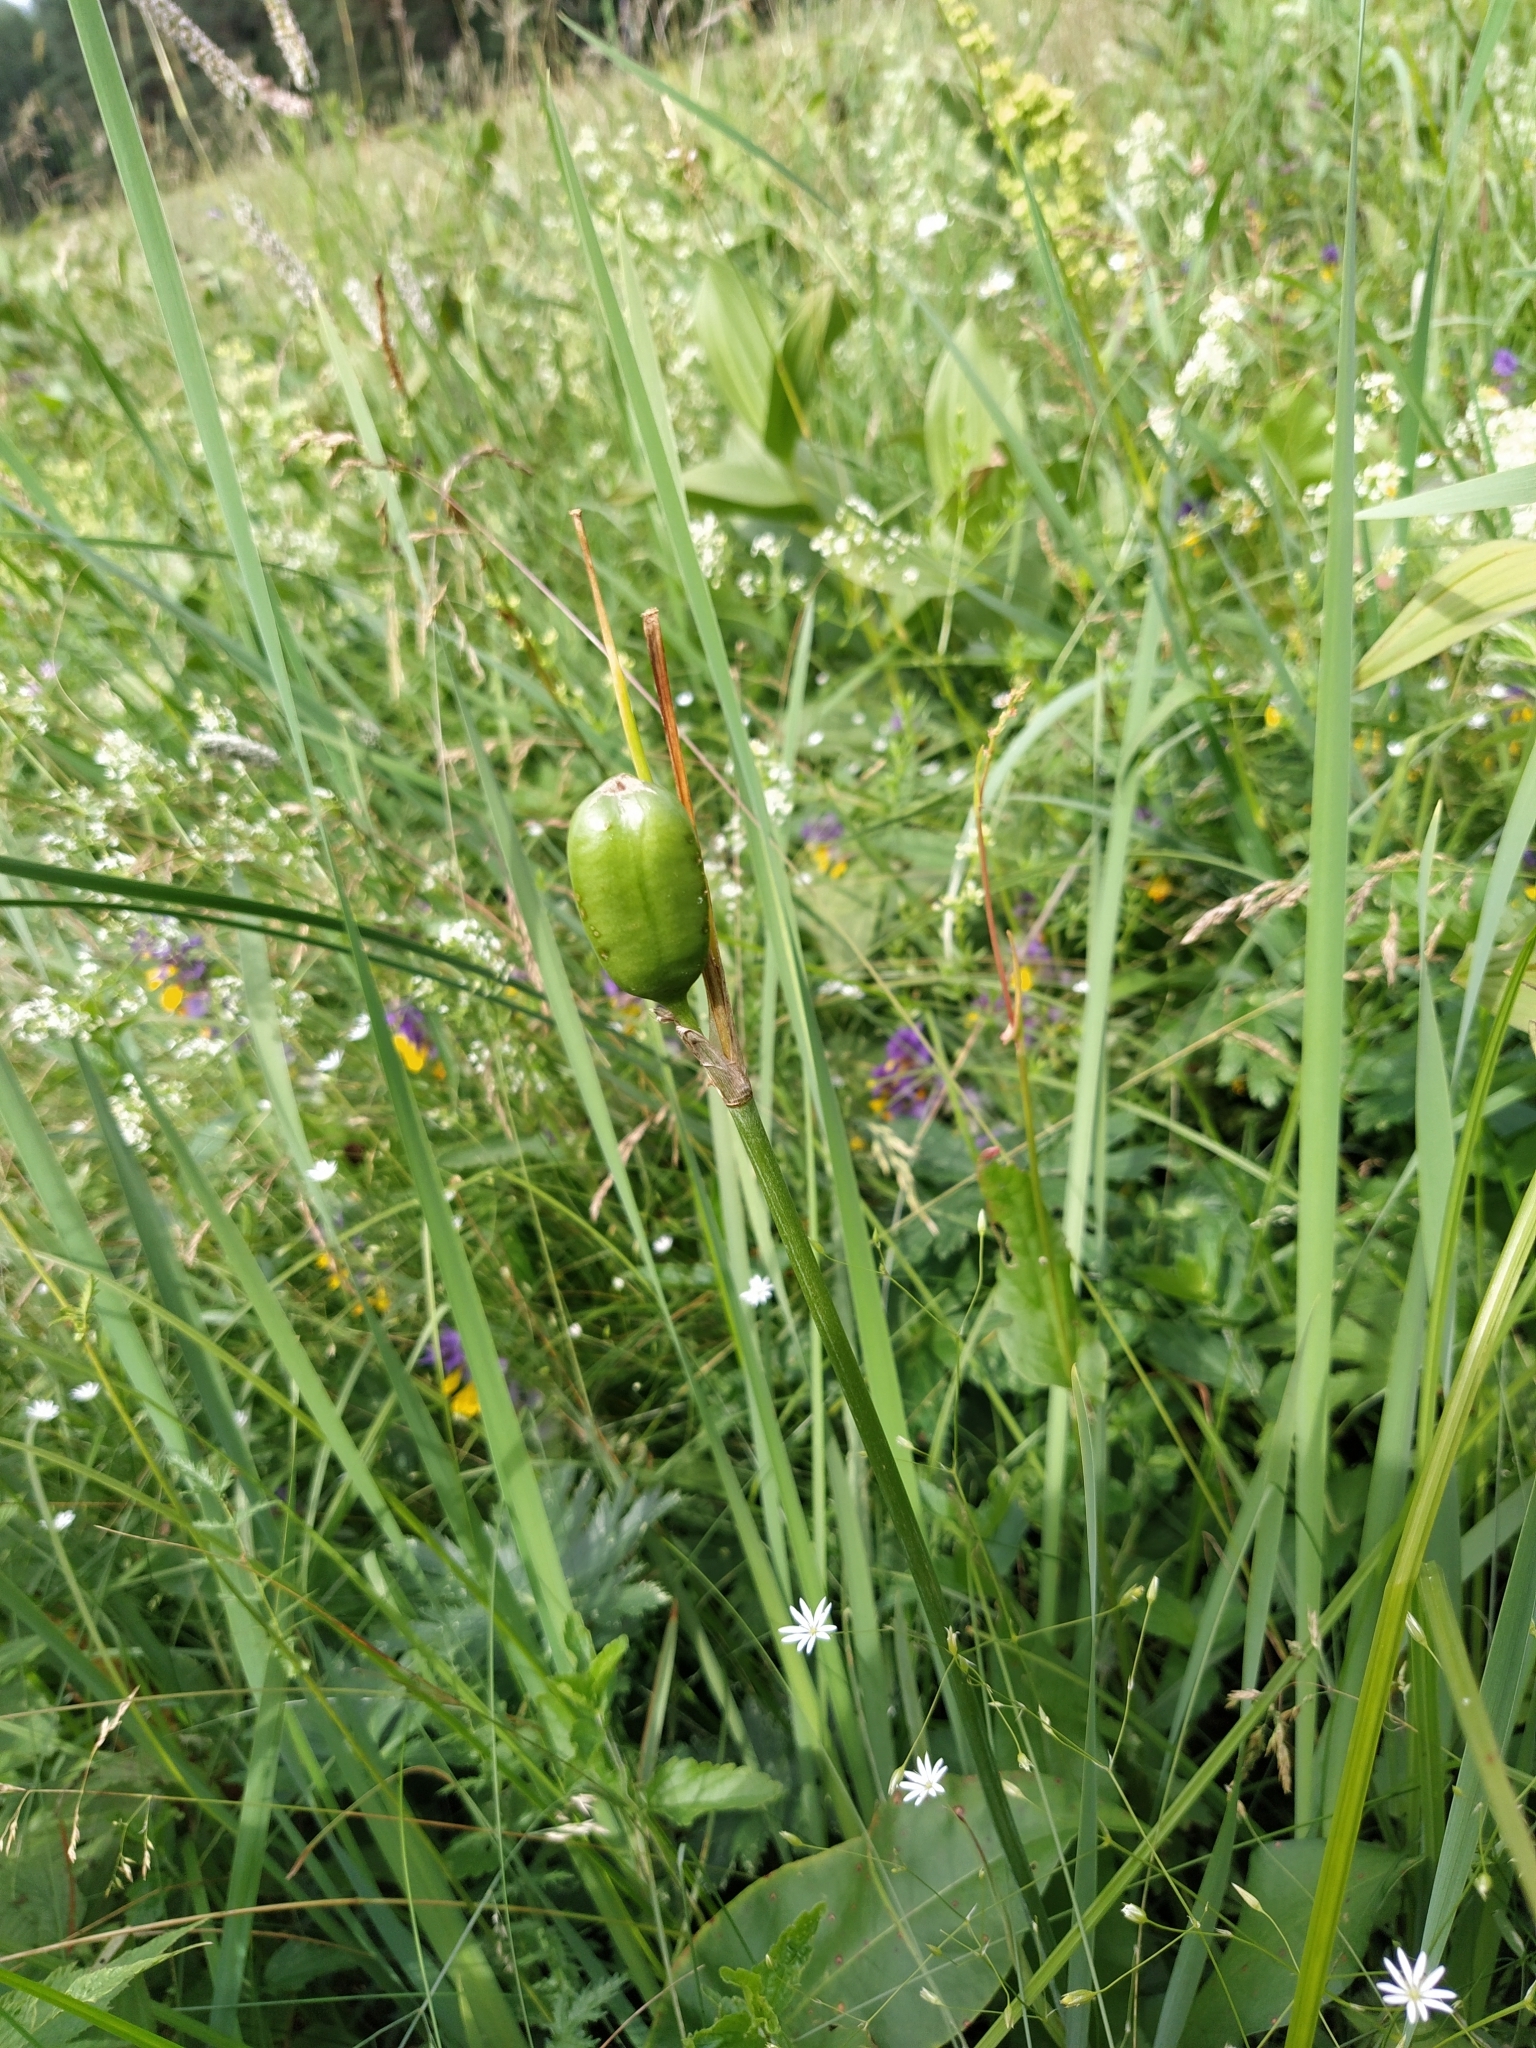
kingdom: Plantae
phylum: Tracheophyta
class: Liliopsida
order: Asparagales
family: Iridaceae
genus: Iris
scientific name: Iris sibirica
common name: Siberian iris
